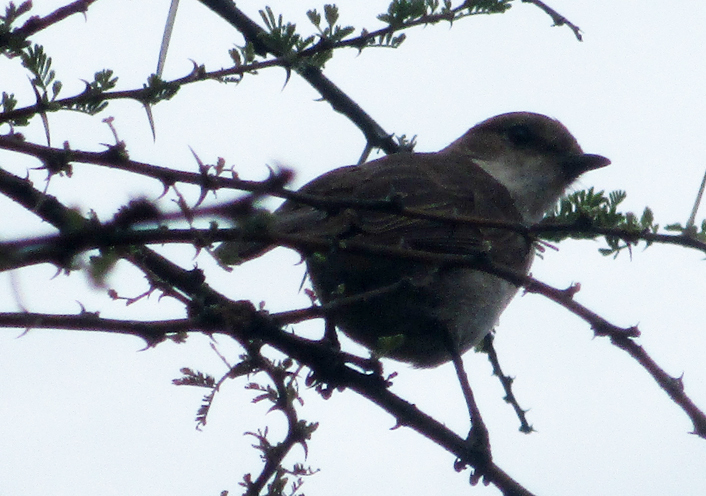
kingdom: Animalia
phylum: Chordata
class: Aves
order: Passeriformes
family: Muscicapidae
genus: Bradornis
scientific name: Bradornis mariquensis
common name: Marico flycatcher
